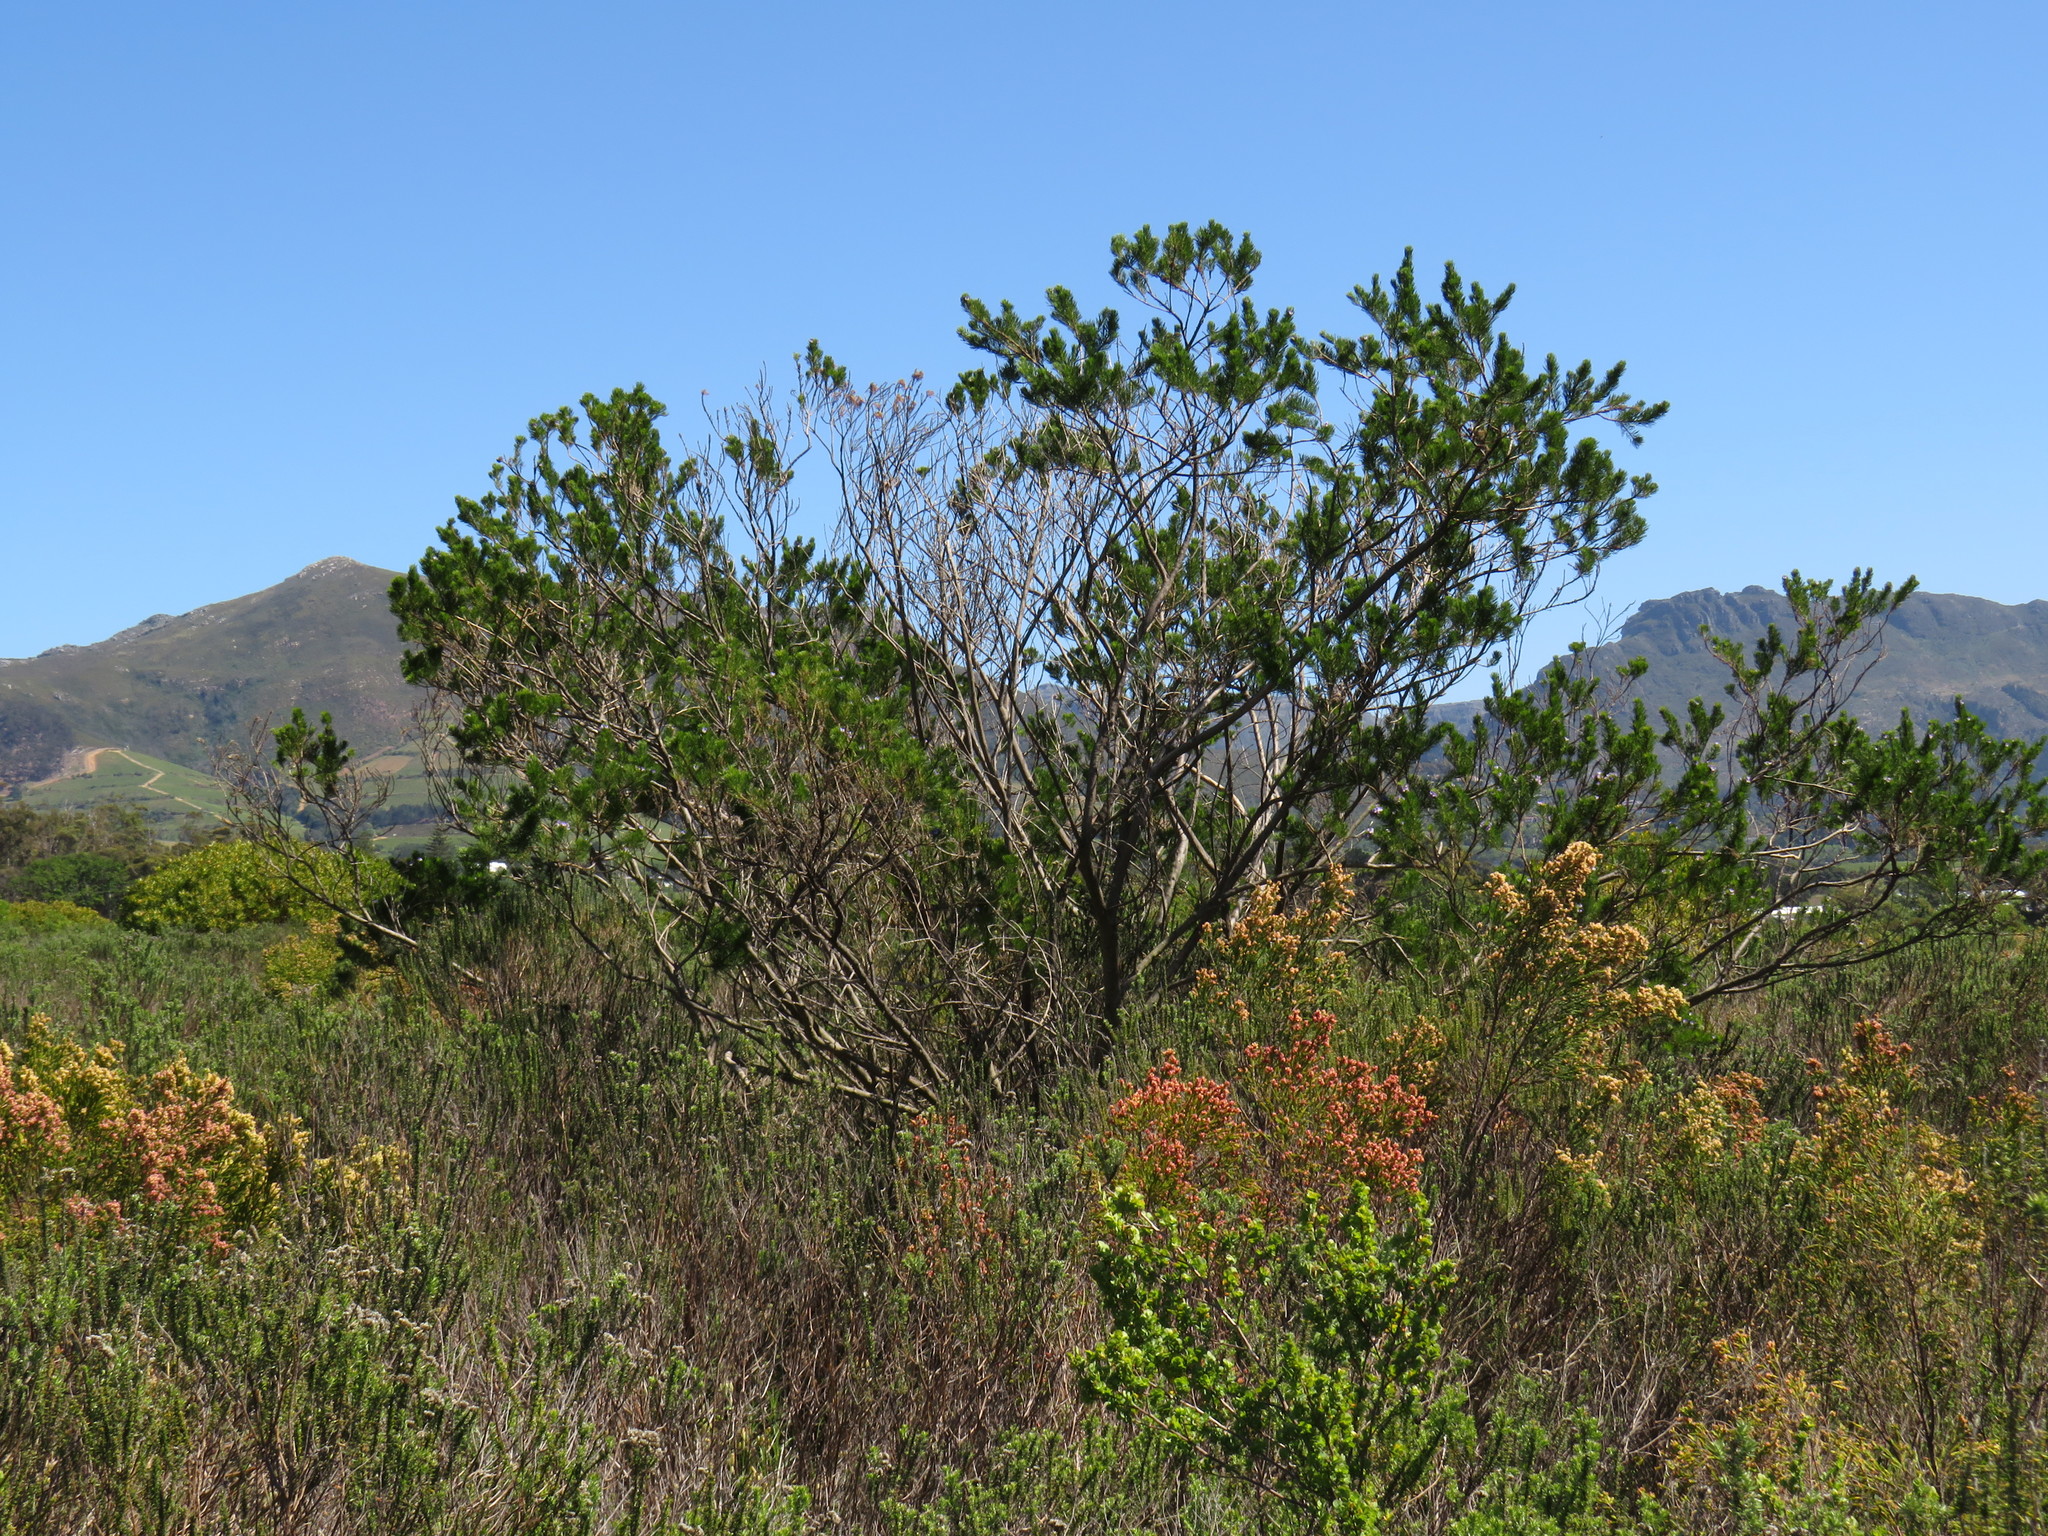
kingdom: Plantae
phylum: Tracheophyta
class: Magnoliopsida
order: Fabales
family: Fabaceae
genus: Psoralea
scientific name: Psoralea pinnata
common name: African scurfpea
